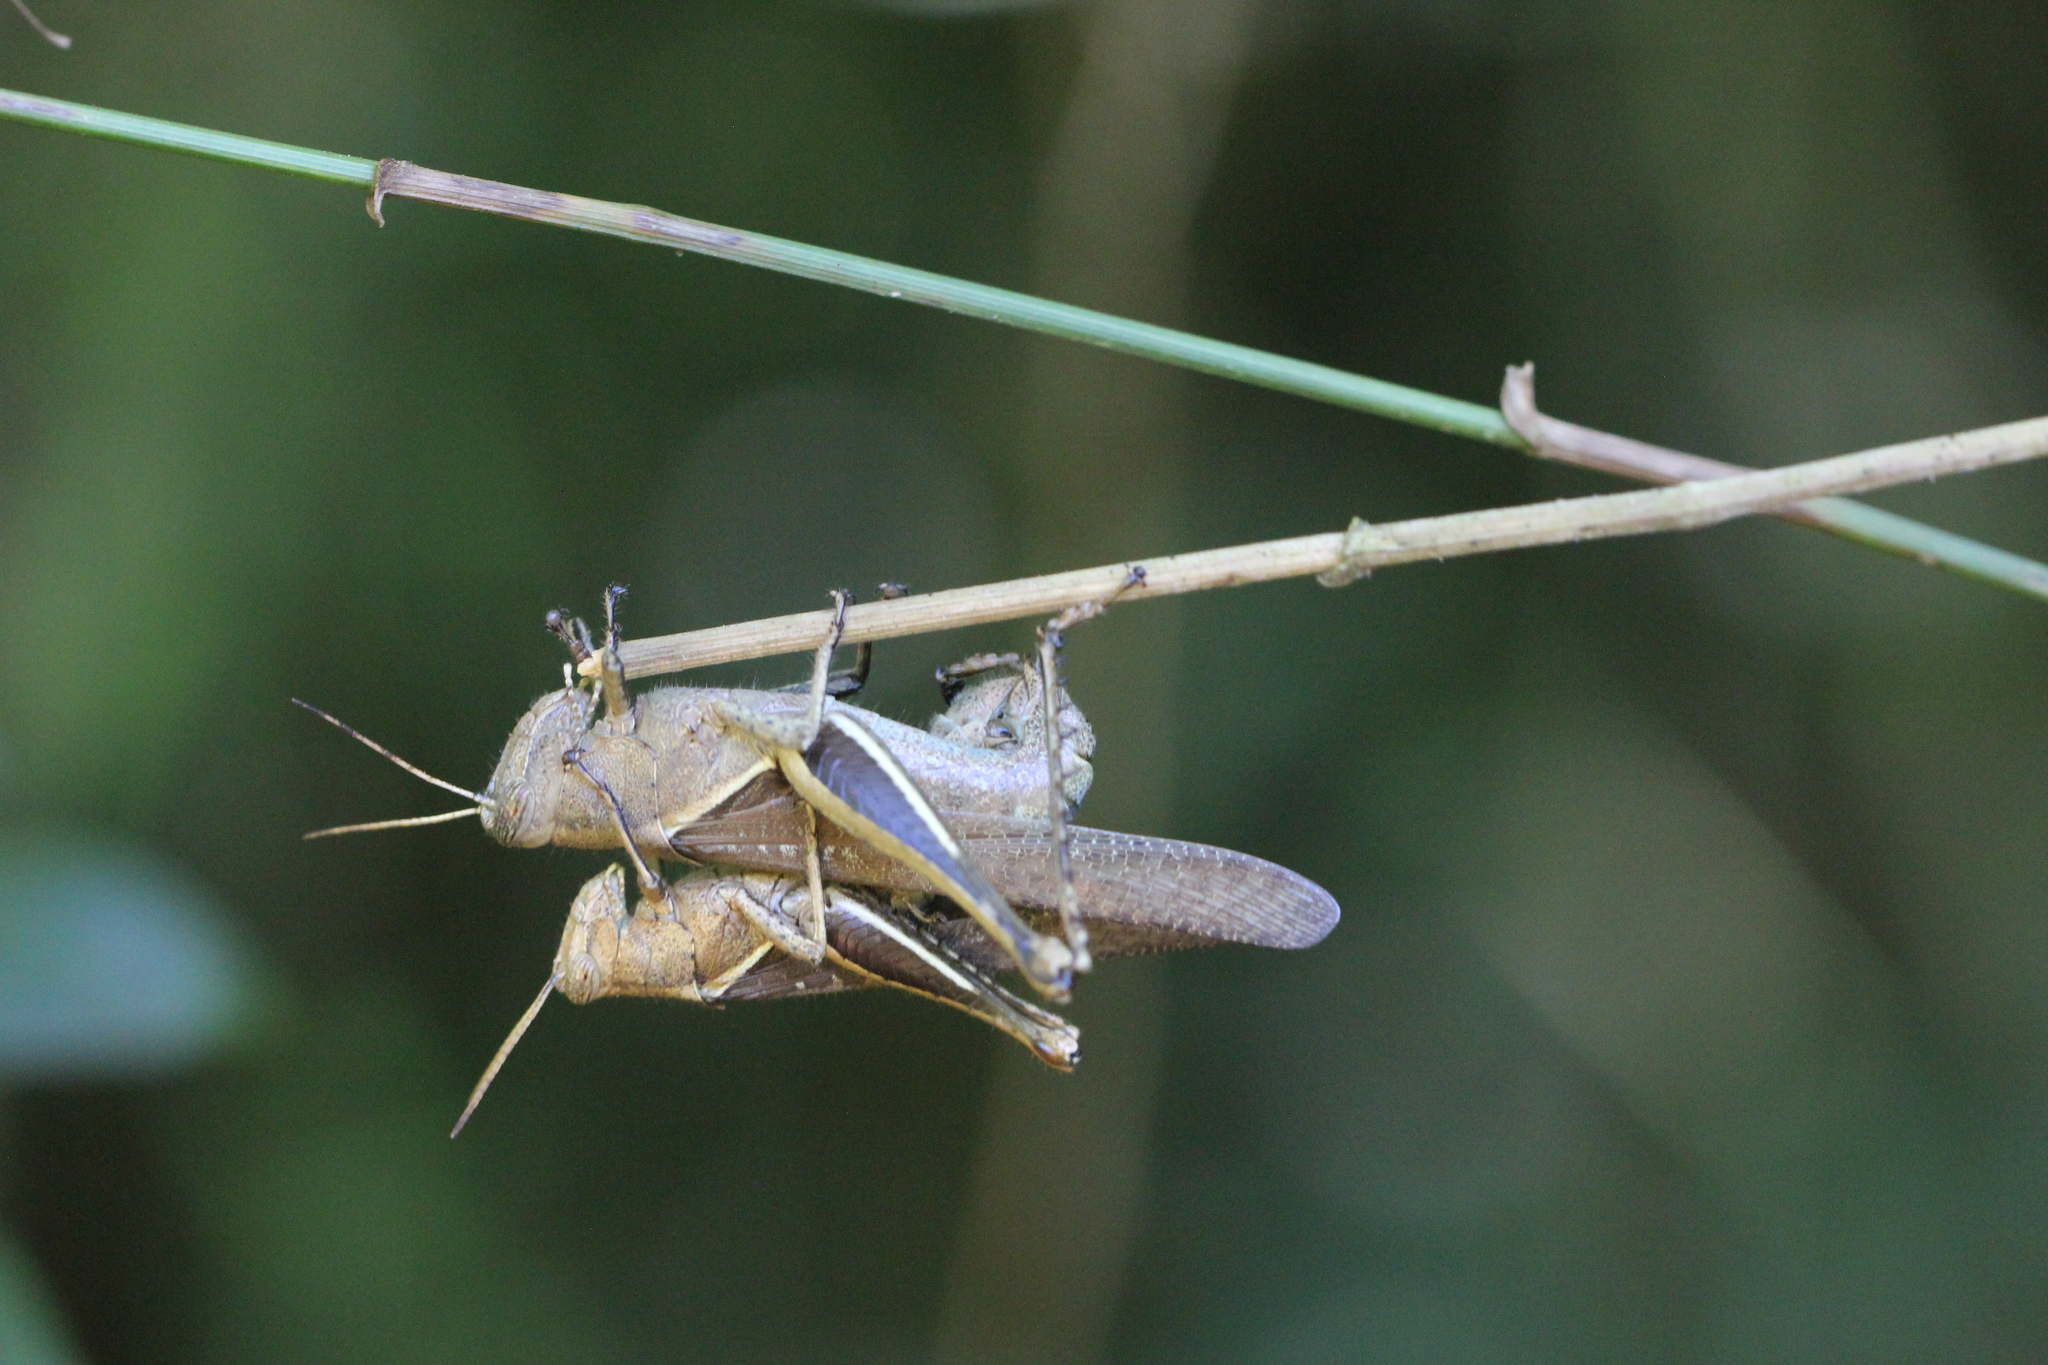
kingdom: Animalia
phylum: Arthropoda
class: Insecta
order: Orthoptera
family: Acrididae
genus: Abracris
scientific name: Abracris flavolineata
